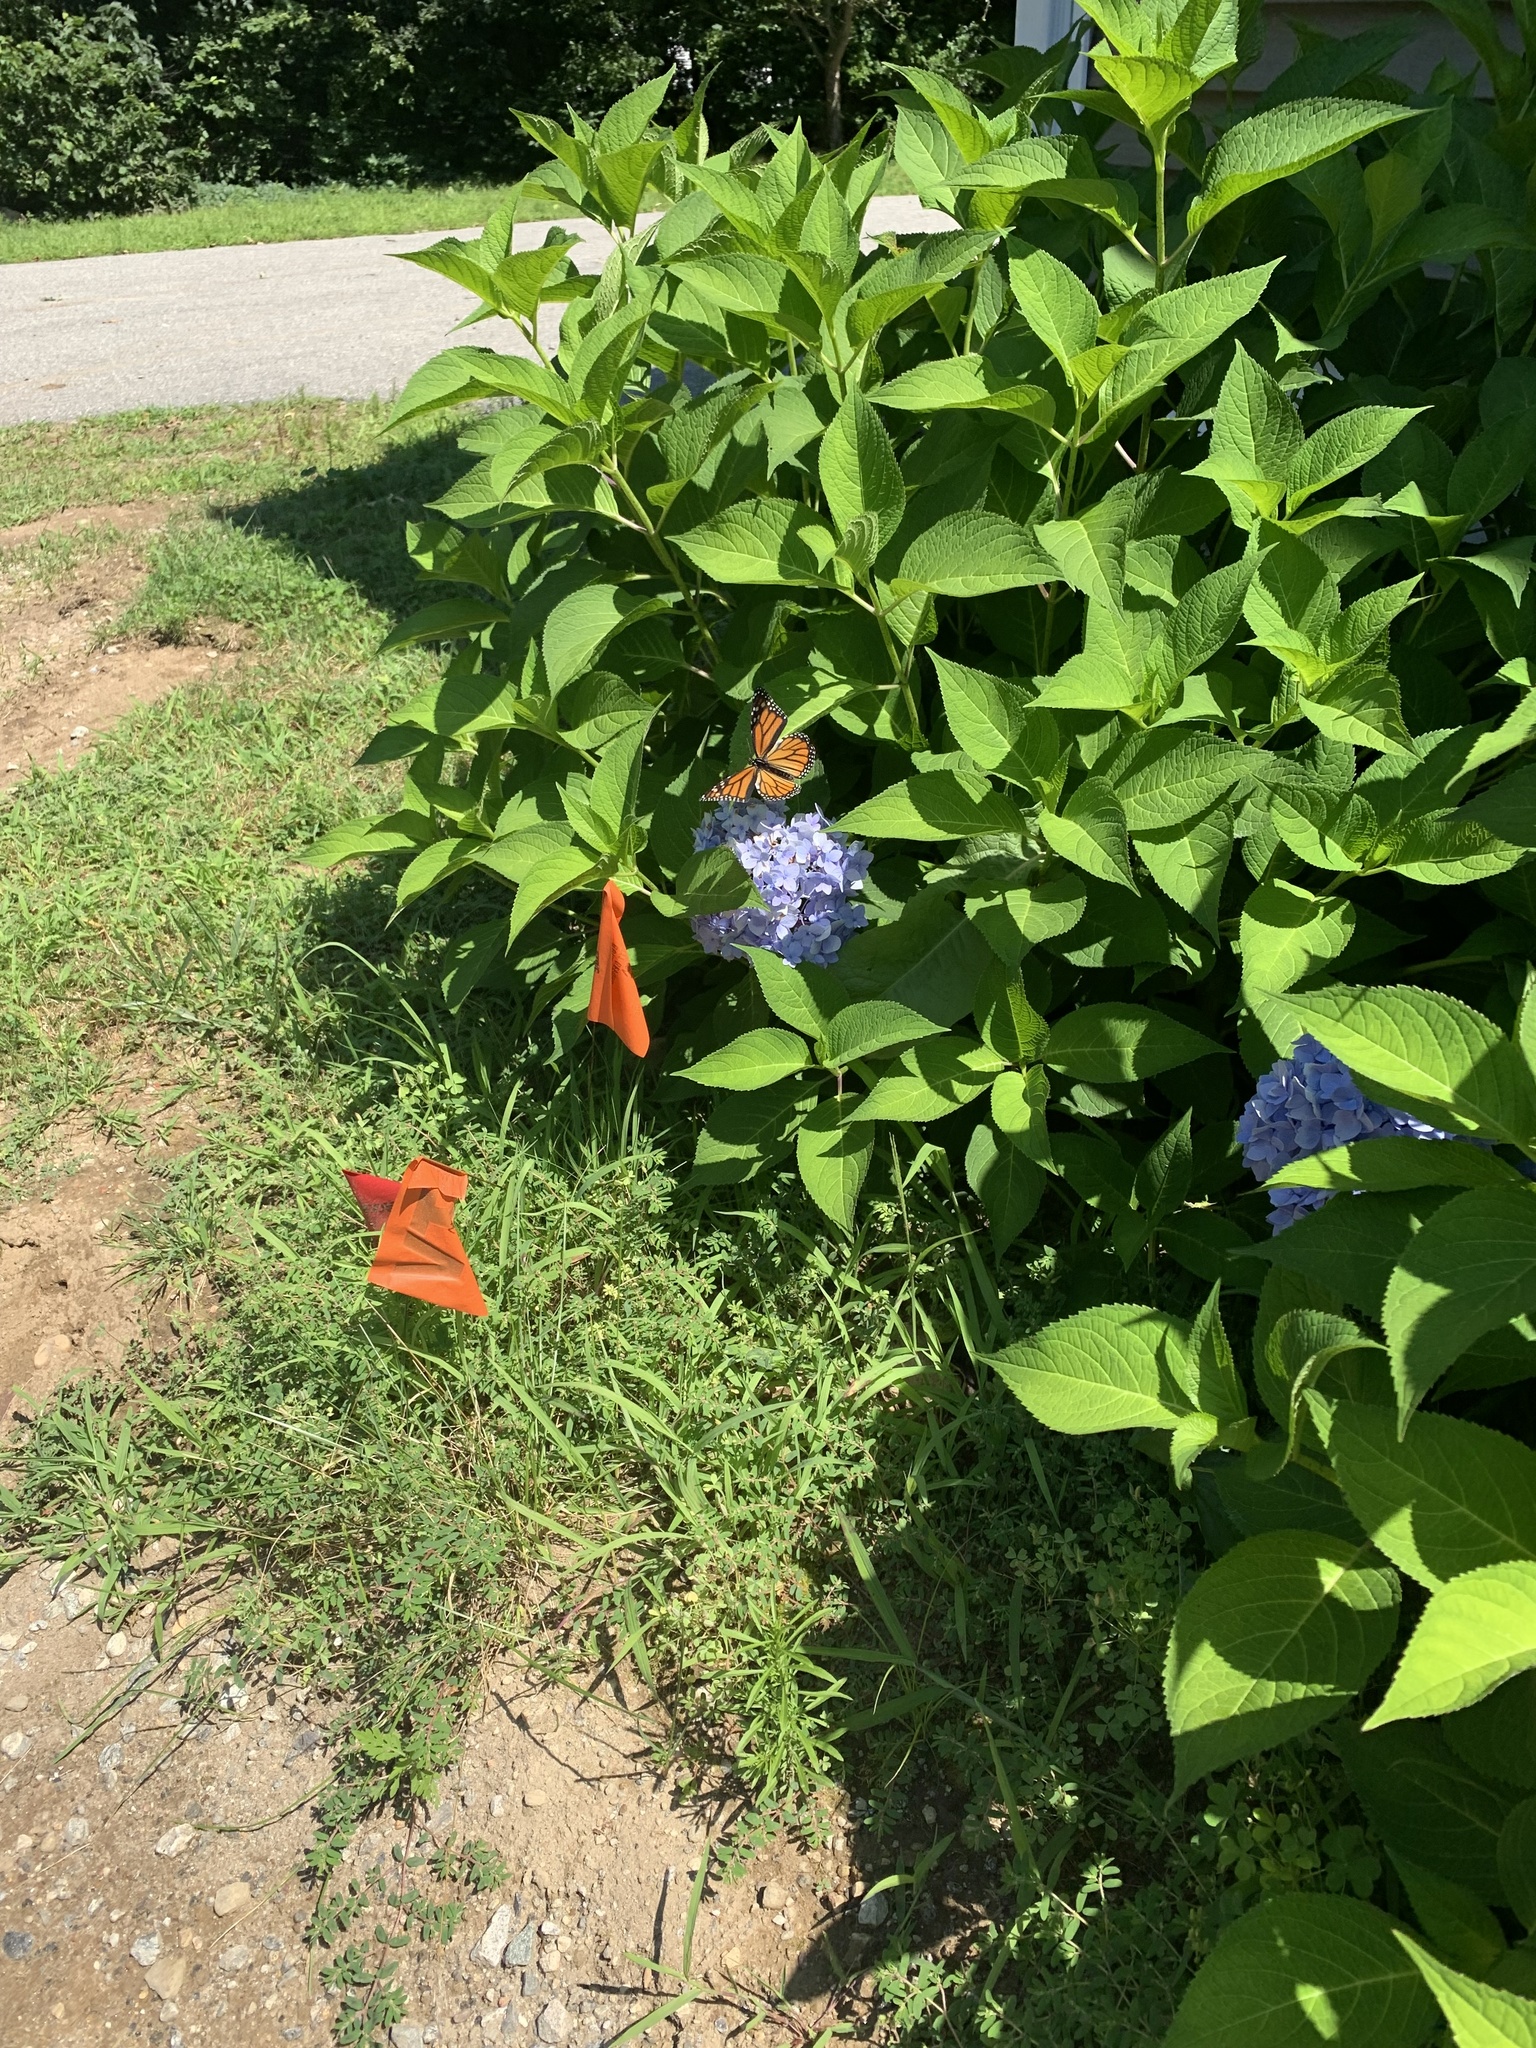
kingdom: Animalia
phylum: Arthropoda
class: Insecta
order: Lepidoptera
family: Nymphalidae
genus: Danaus
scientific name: Danaus plexippus
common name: Monarch
